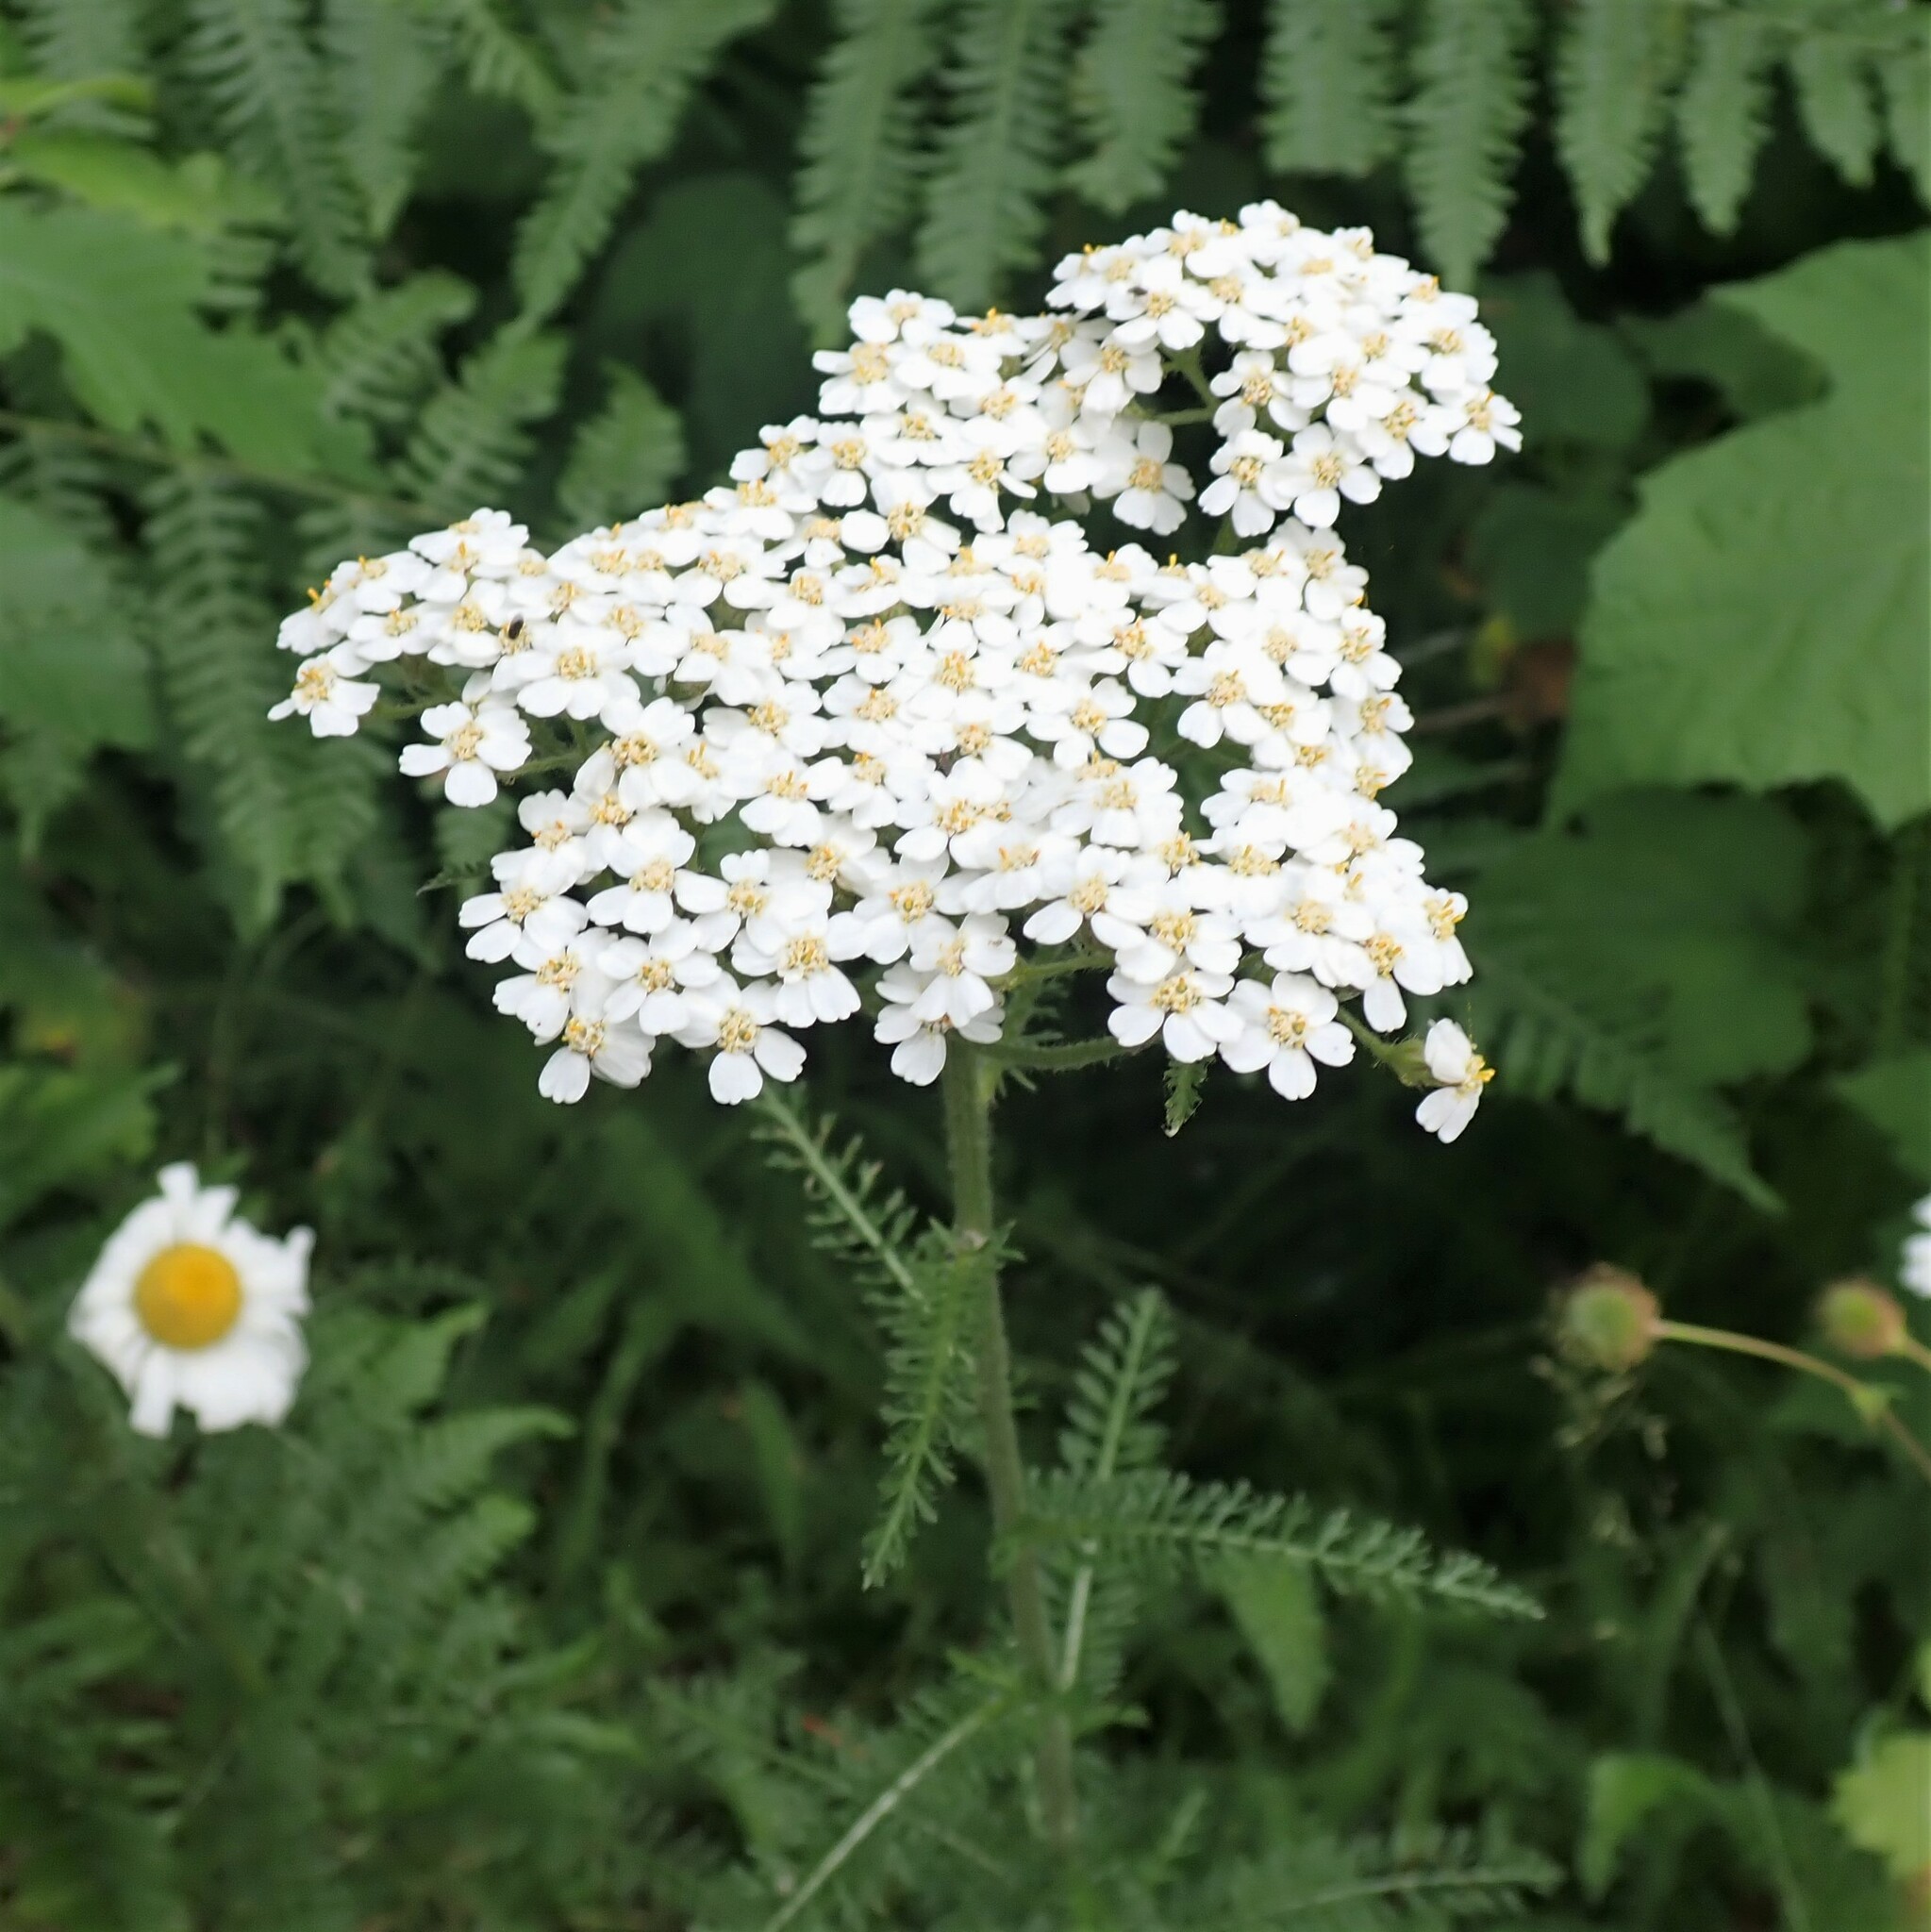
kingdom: Plantae
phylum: Tracheophyta
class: Magnoliopsida
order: Asterales
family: Asteraceae
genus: Achillea
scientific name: Achillea millefolium
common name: Yarrow
